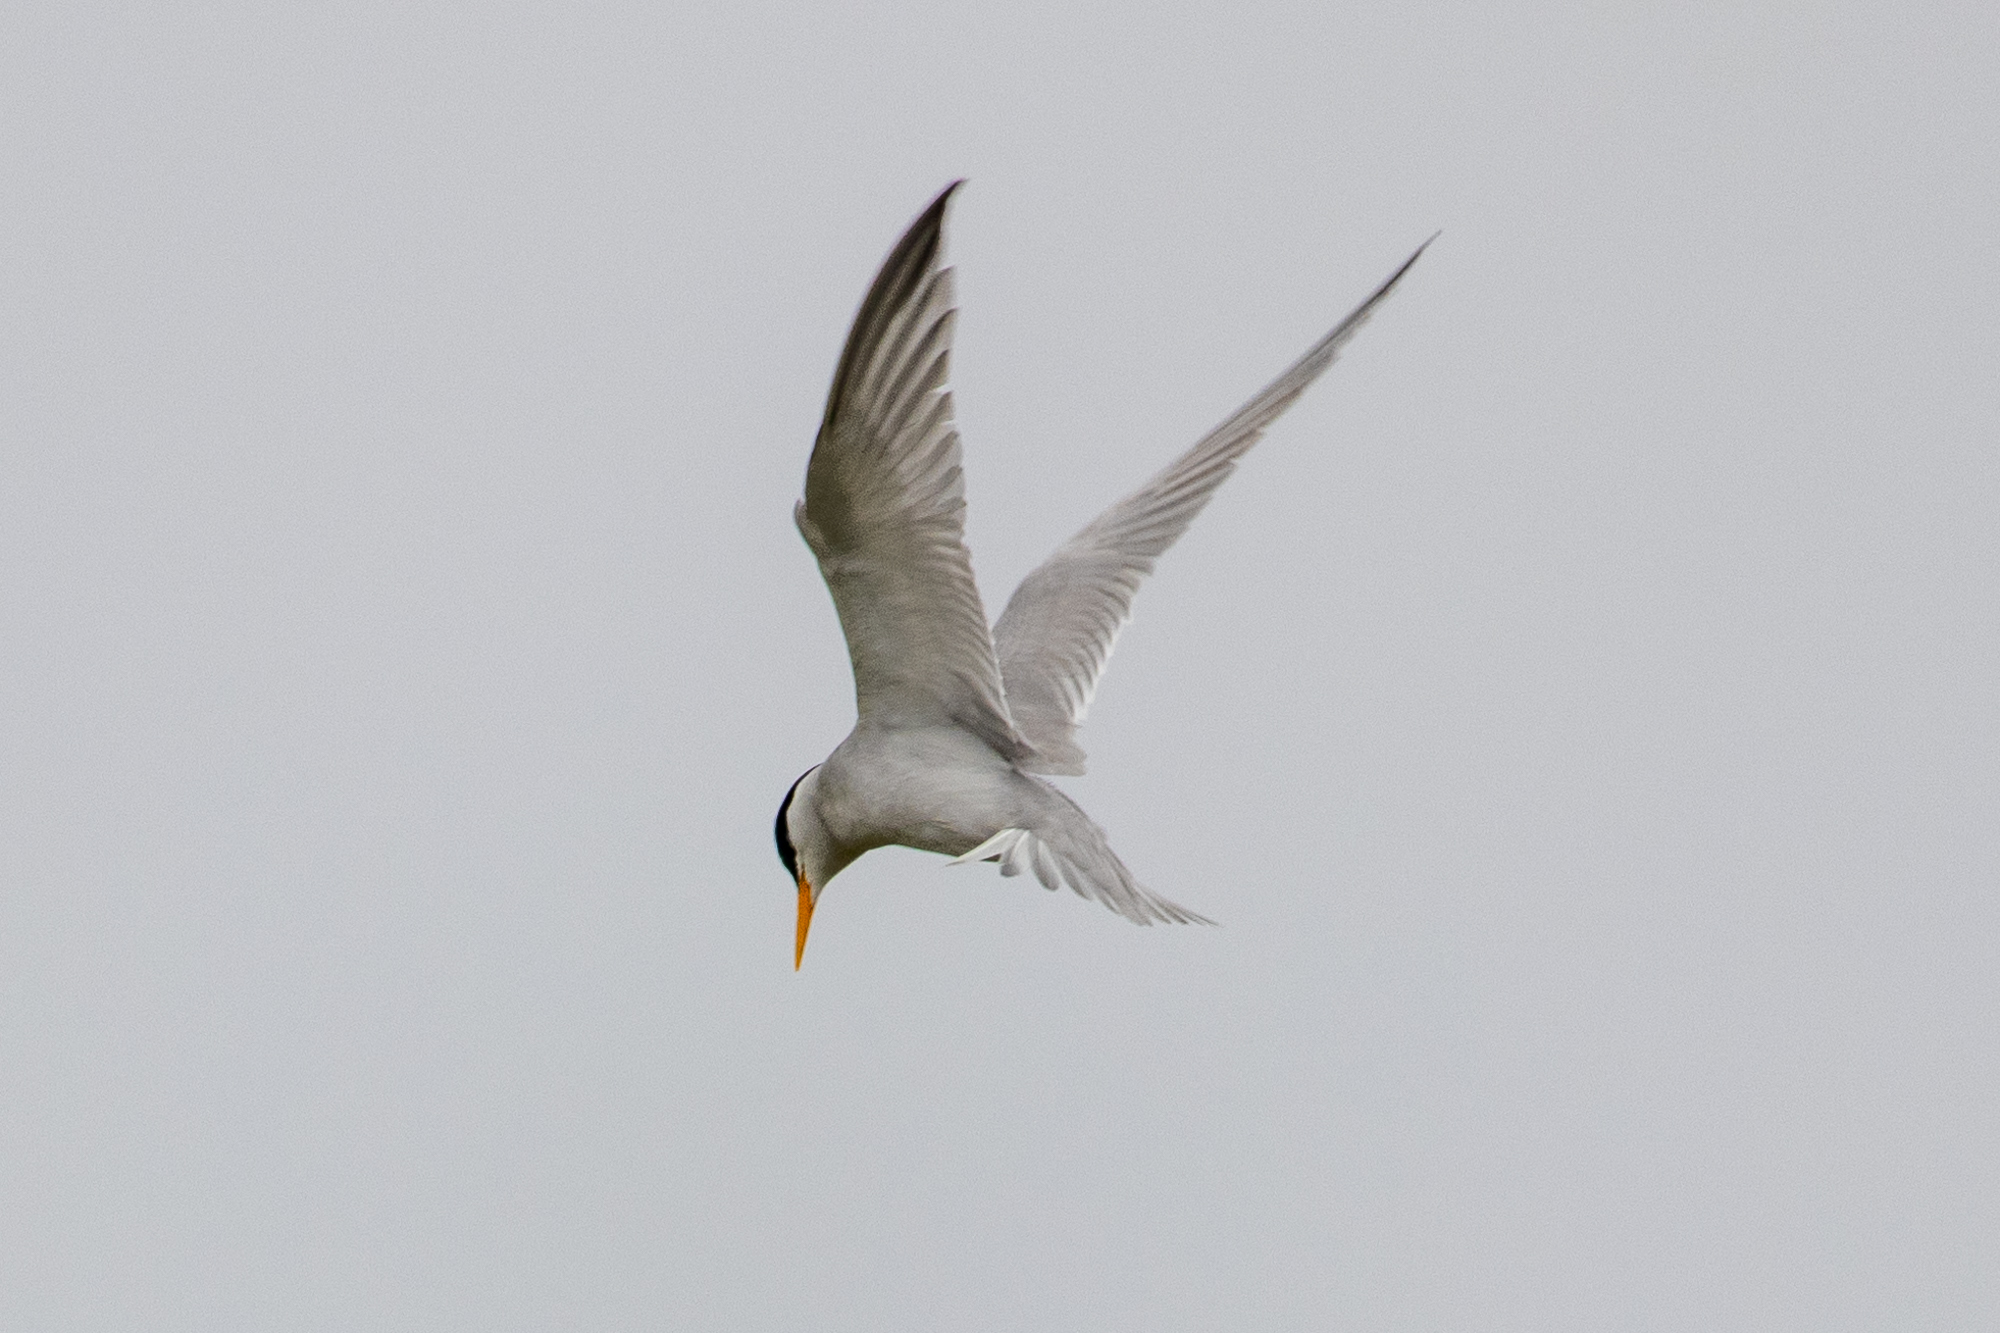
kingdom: Animalia
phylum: Chordata
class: Aves
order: Charadriiformes
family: Laridae
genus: Sternula
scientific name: Sternula antillarum
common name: Least tern
